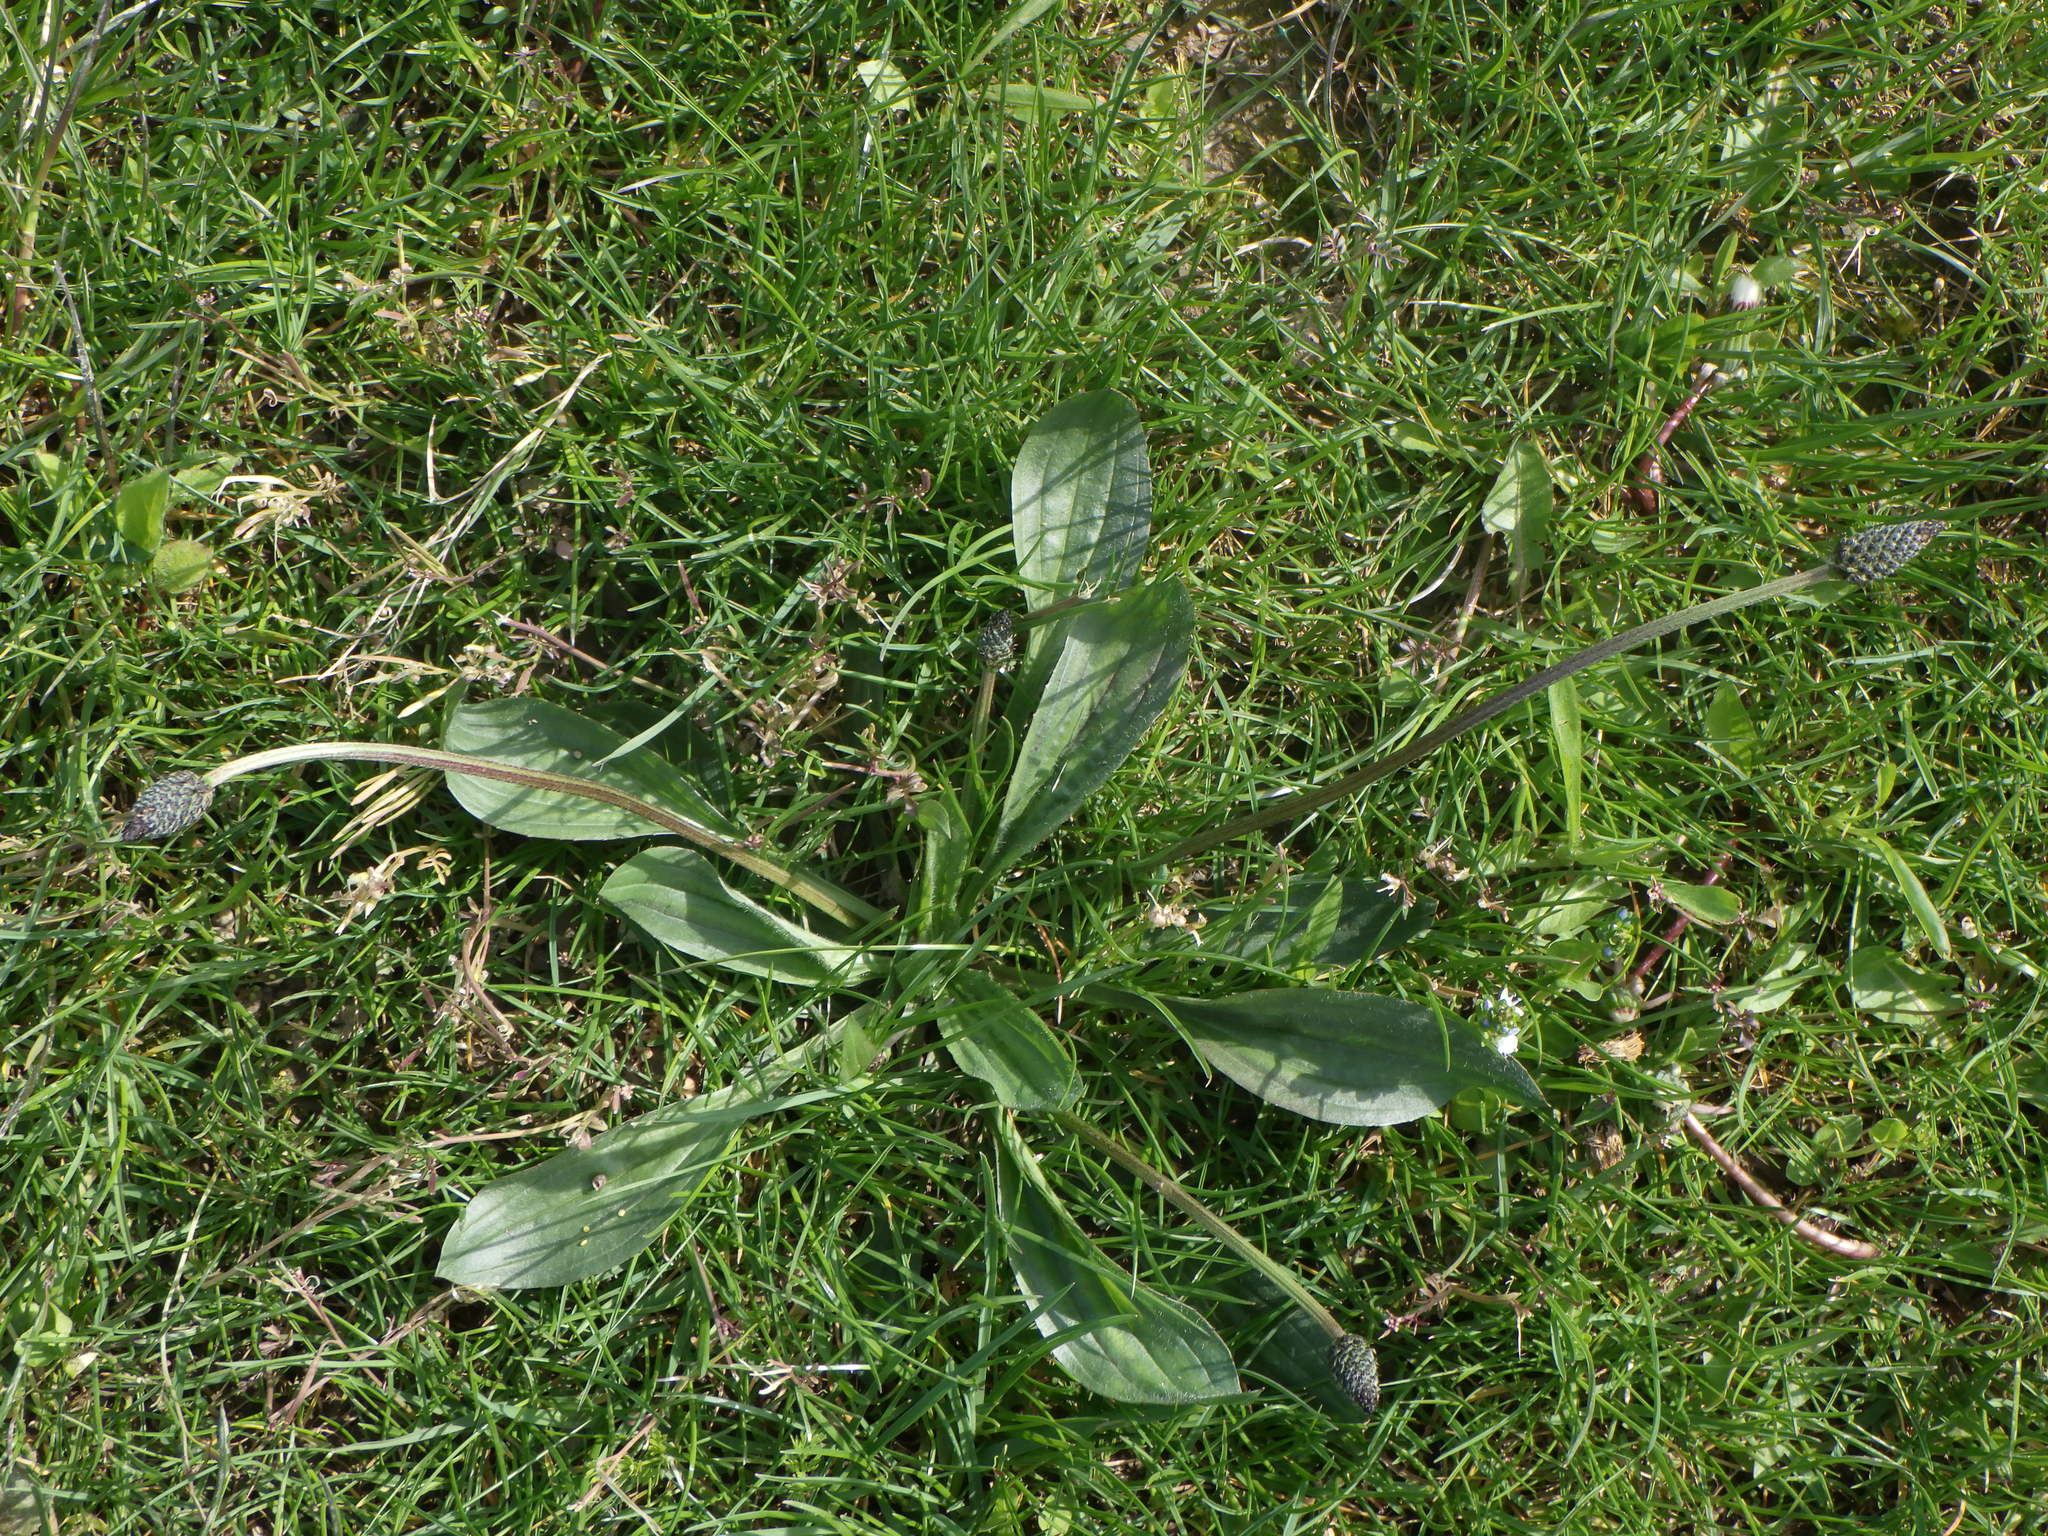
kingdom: Plantae
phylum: Tracheophyta
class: Magnoliopsida
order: Lamiales
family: Plantaginaceae
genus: Plantago
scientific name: Plantago lanceolata
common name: Ribwort plantain
